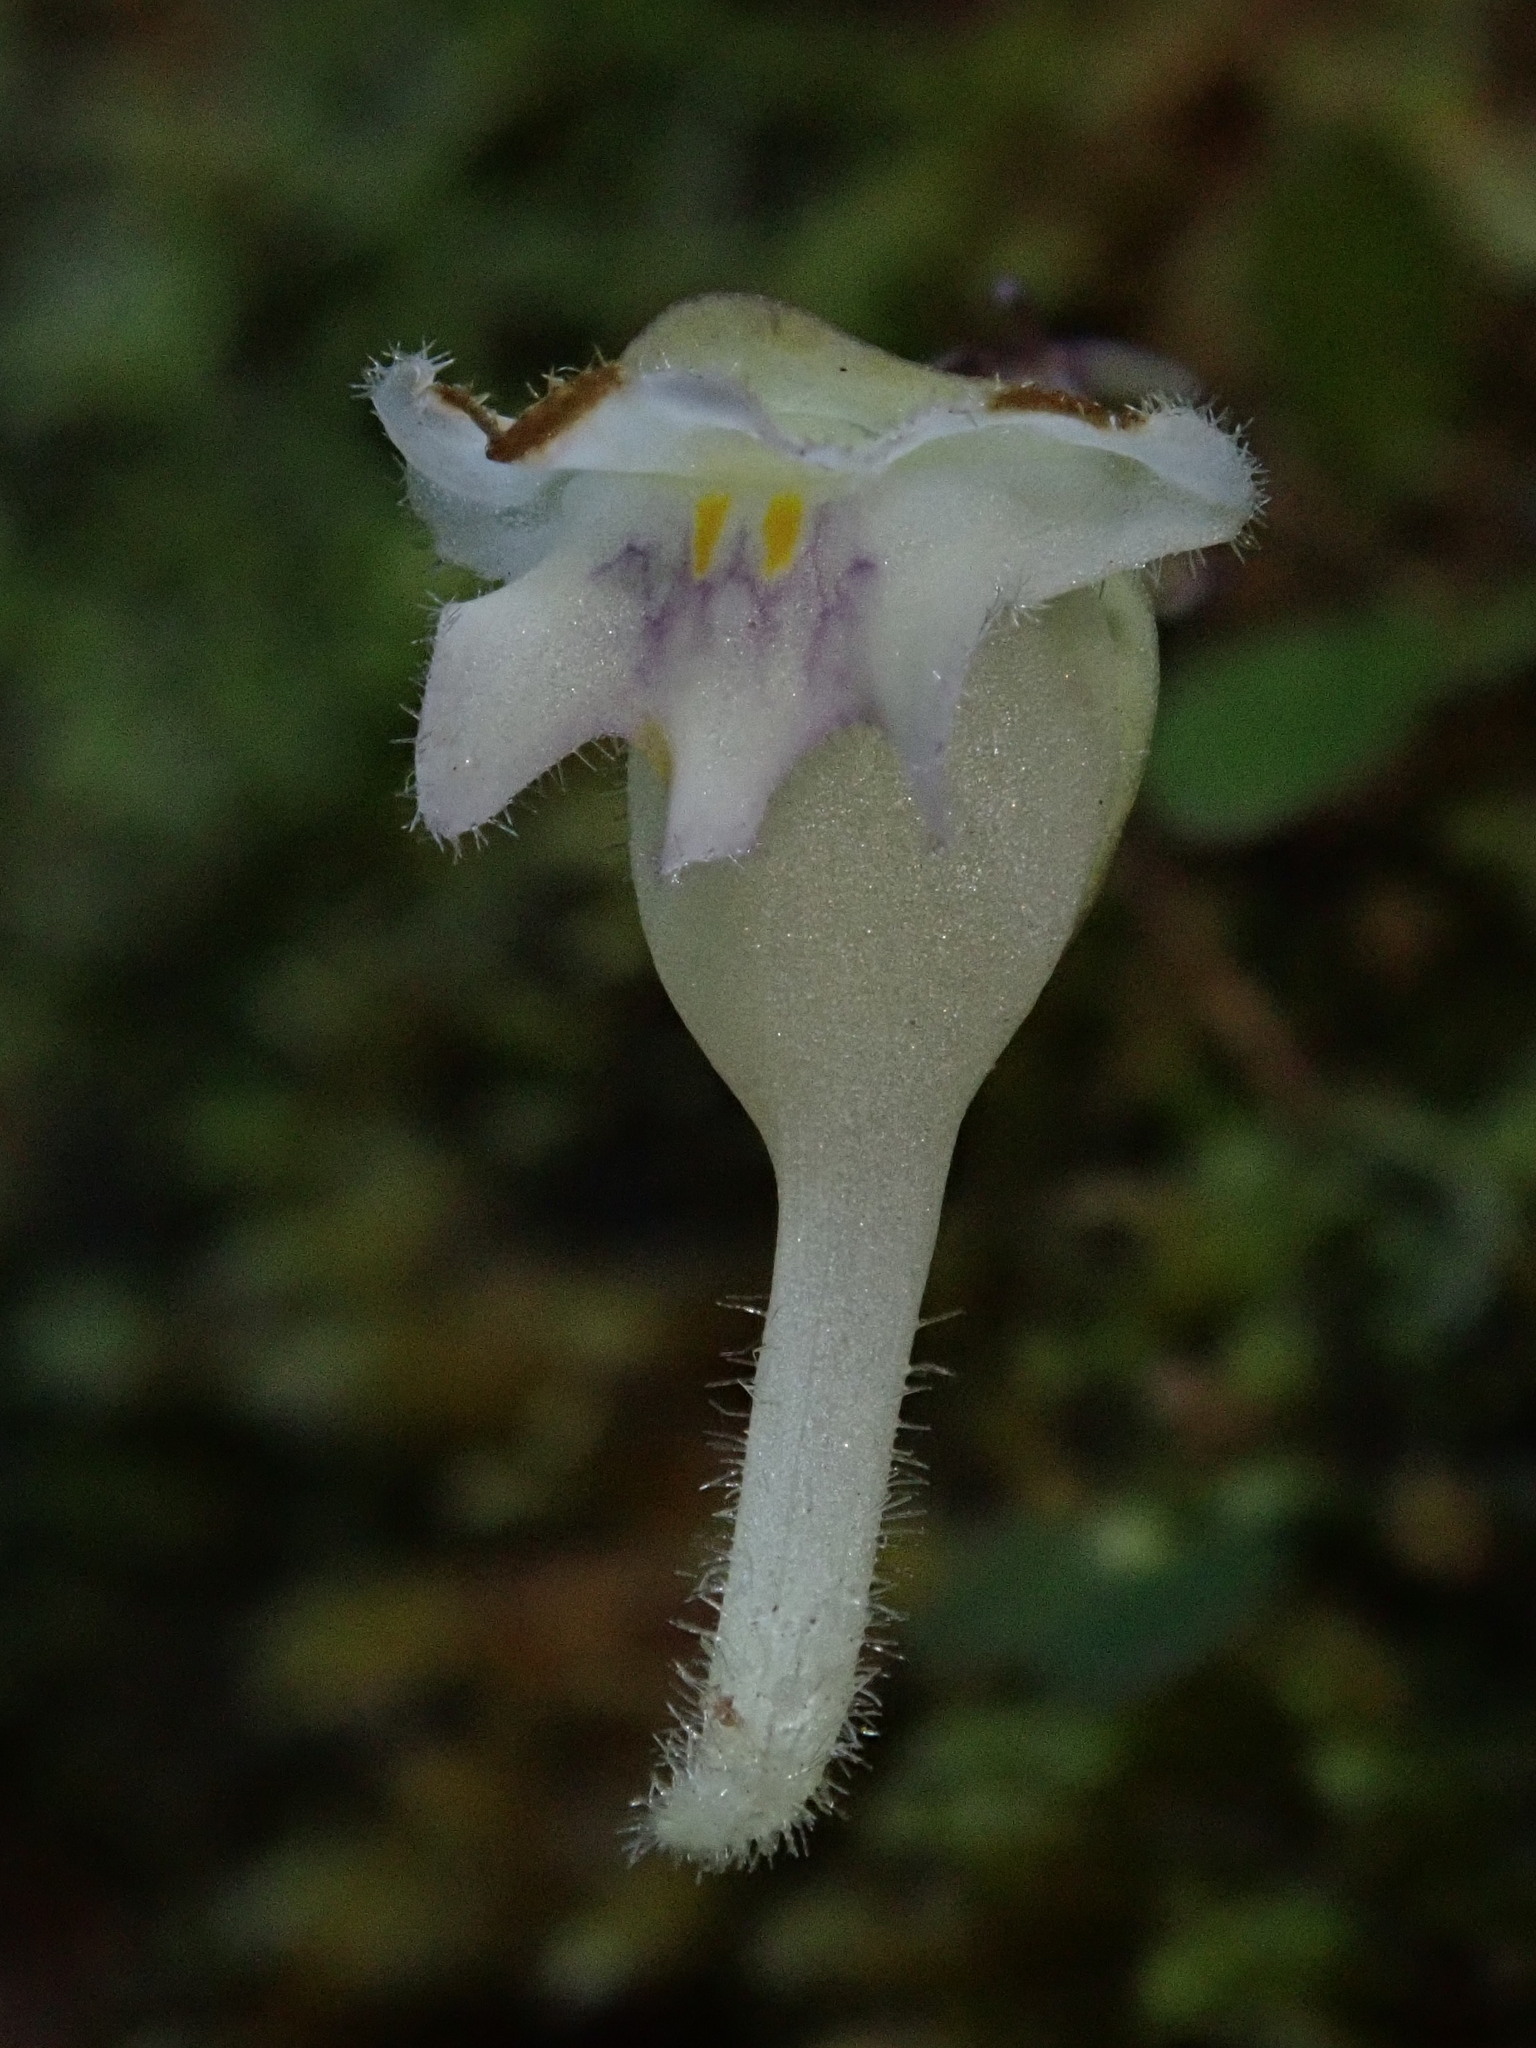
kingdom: Plantae
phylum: Tracheophyta
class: Magnoliopsida
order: Lamiales
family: Lentibulariaceae
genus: Utricularia
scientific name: Utricularia jamesoniana
